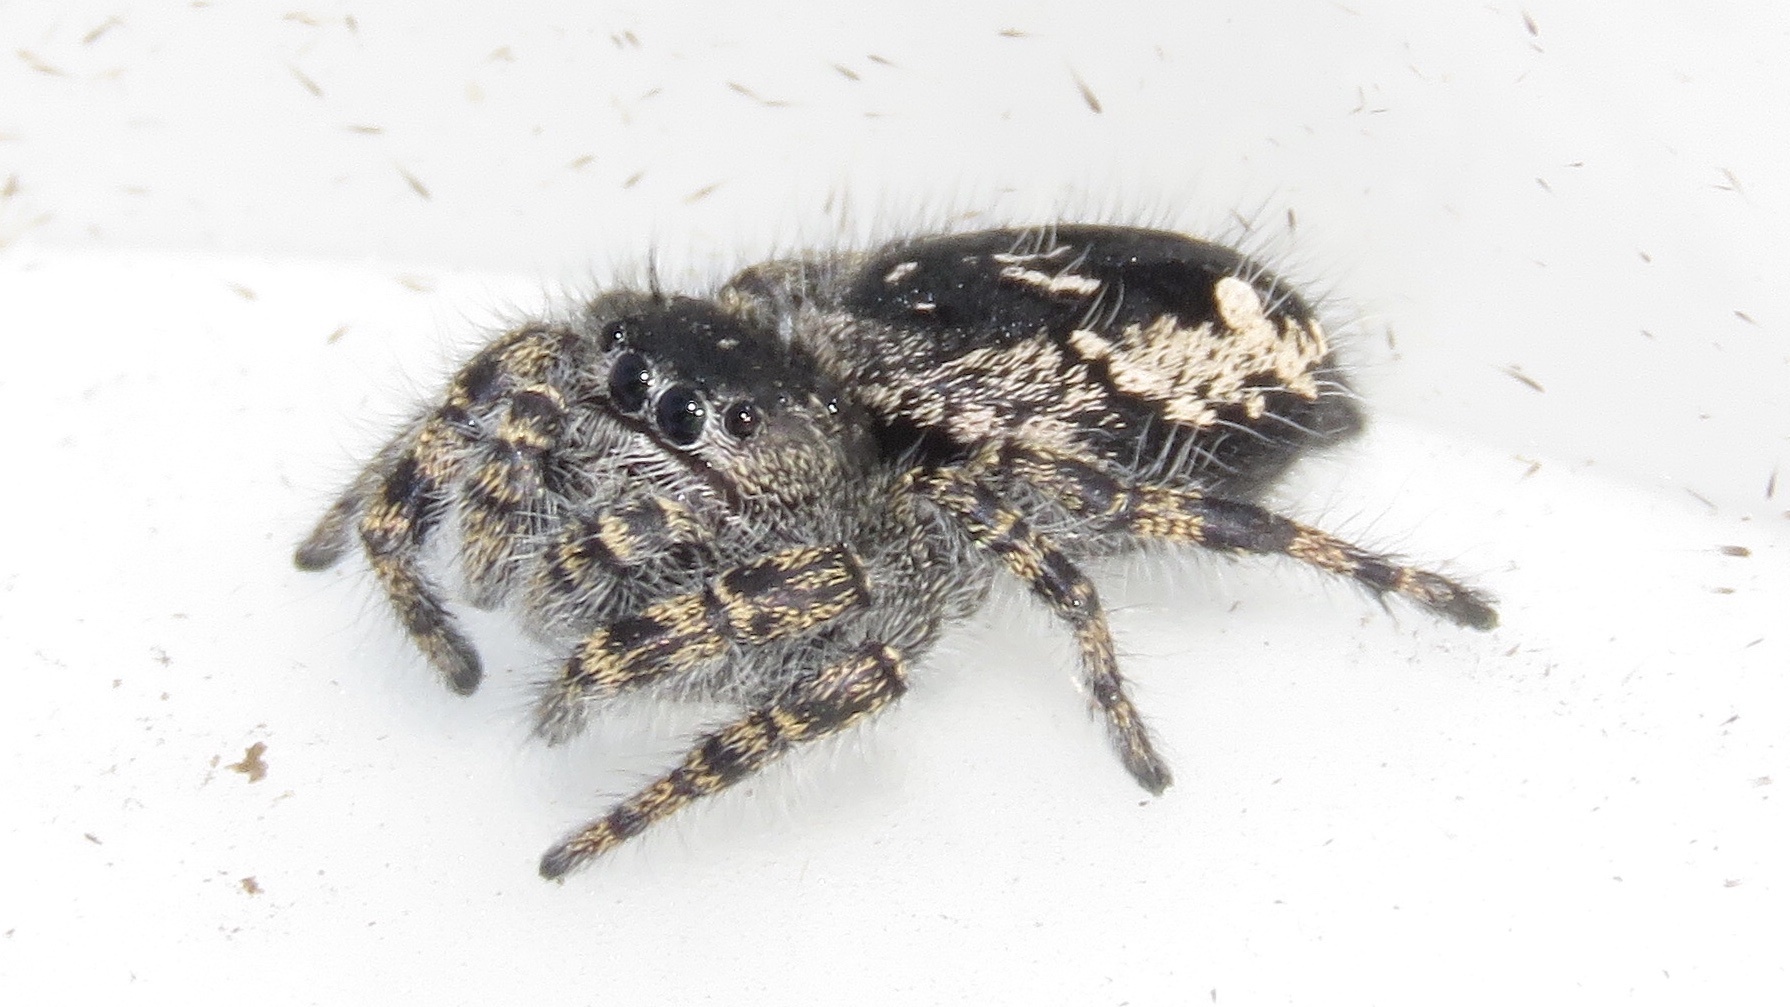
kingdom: Animalia
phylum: Arthropoda
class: Arachnida
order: Araneae
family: Salticidae
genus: Phidippus
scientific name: Phidippus borealis
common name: Boreal tufted jumping spider
